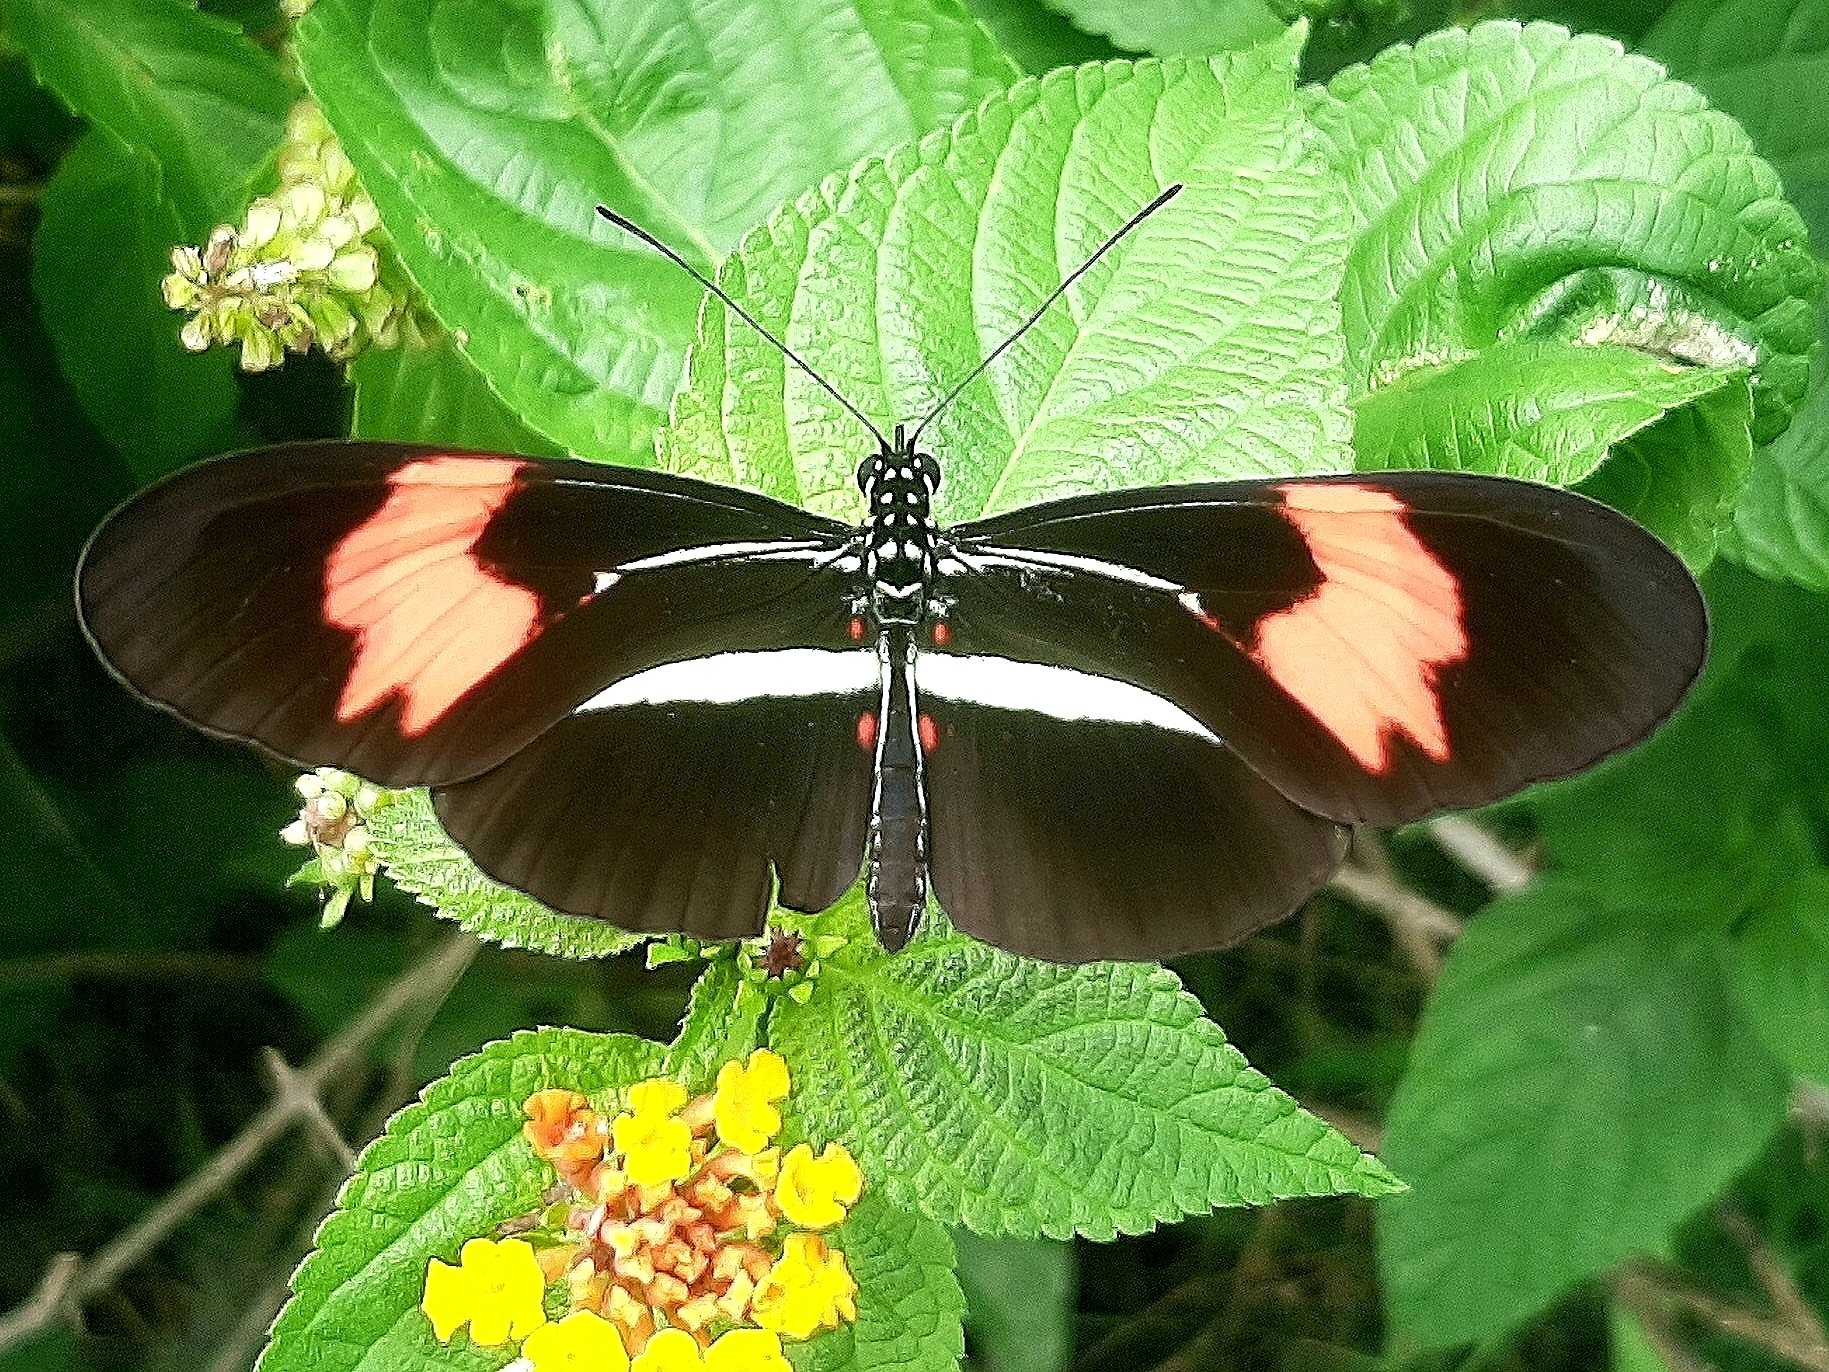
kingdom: Animalia
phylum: Arthropoda
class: Insecta
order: Lepidoptera
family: Nymphalidae
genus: Heliconius
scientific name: Heliconius erato
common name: Common patch longwing
